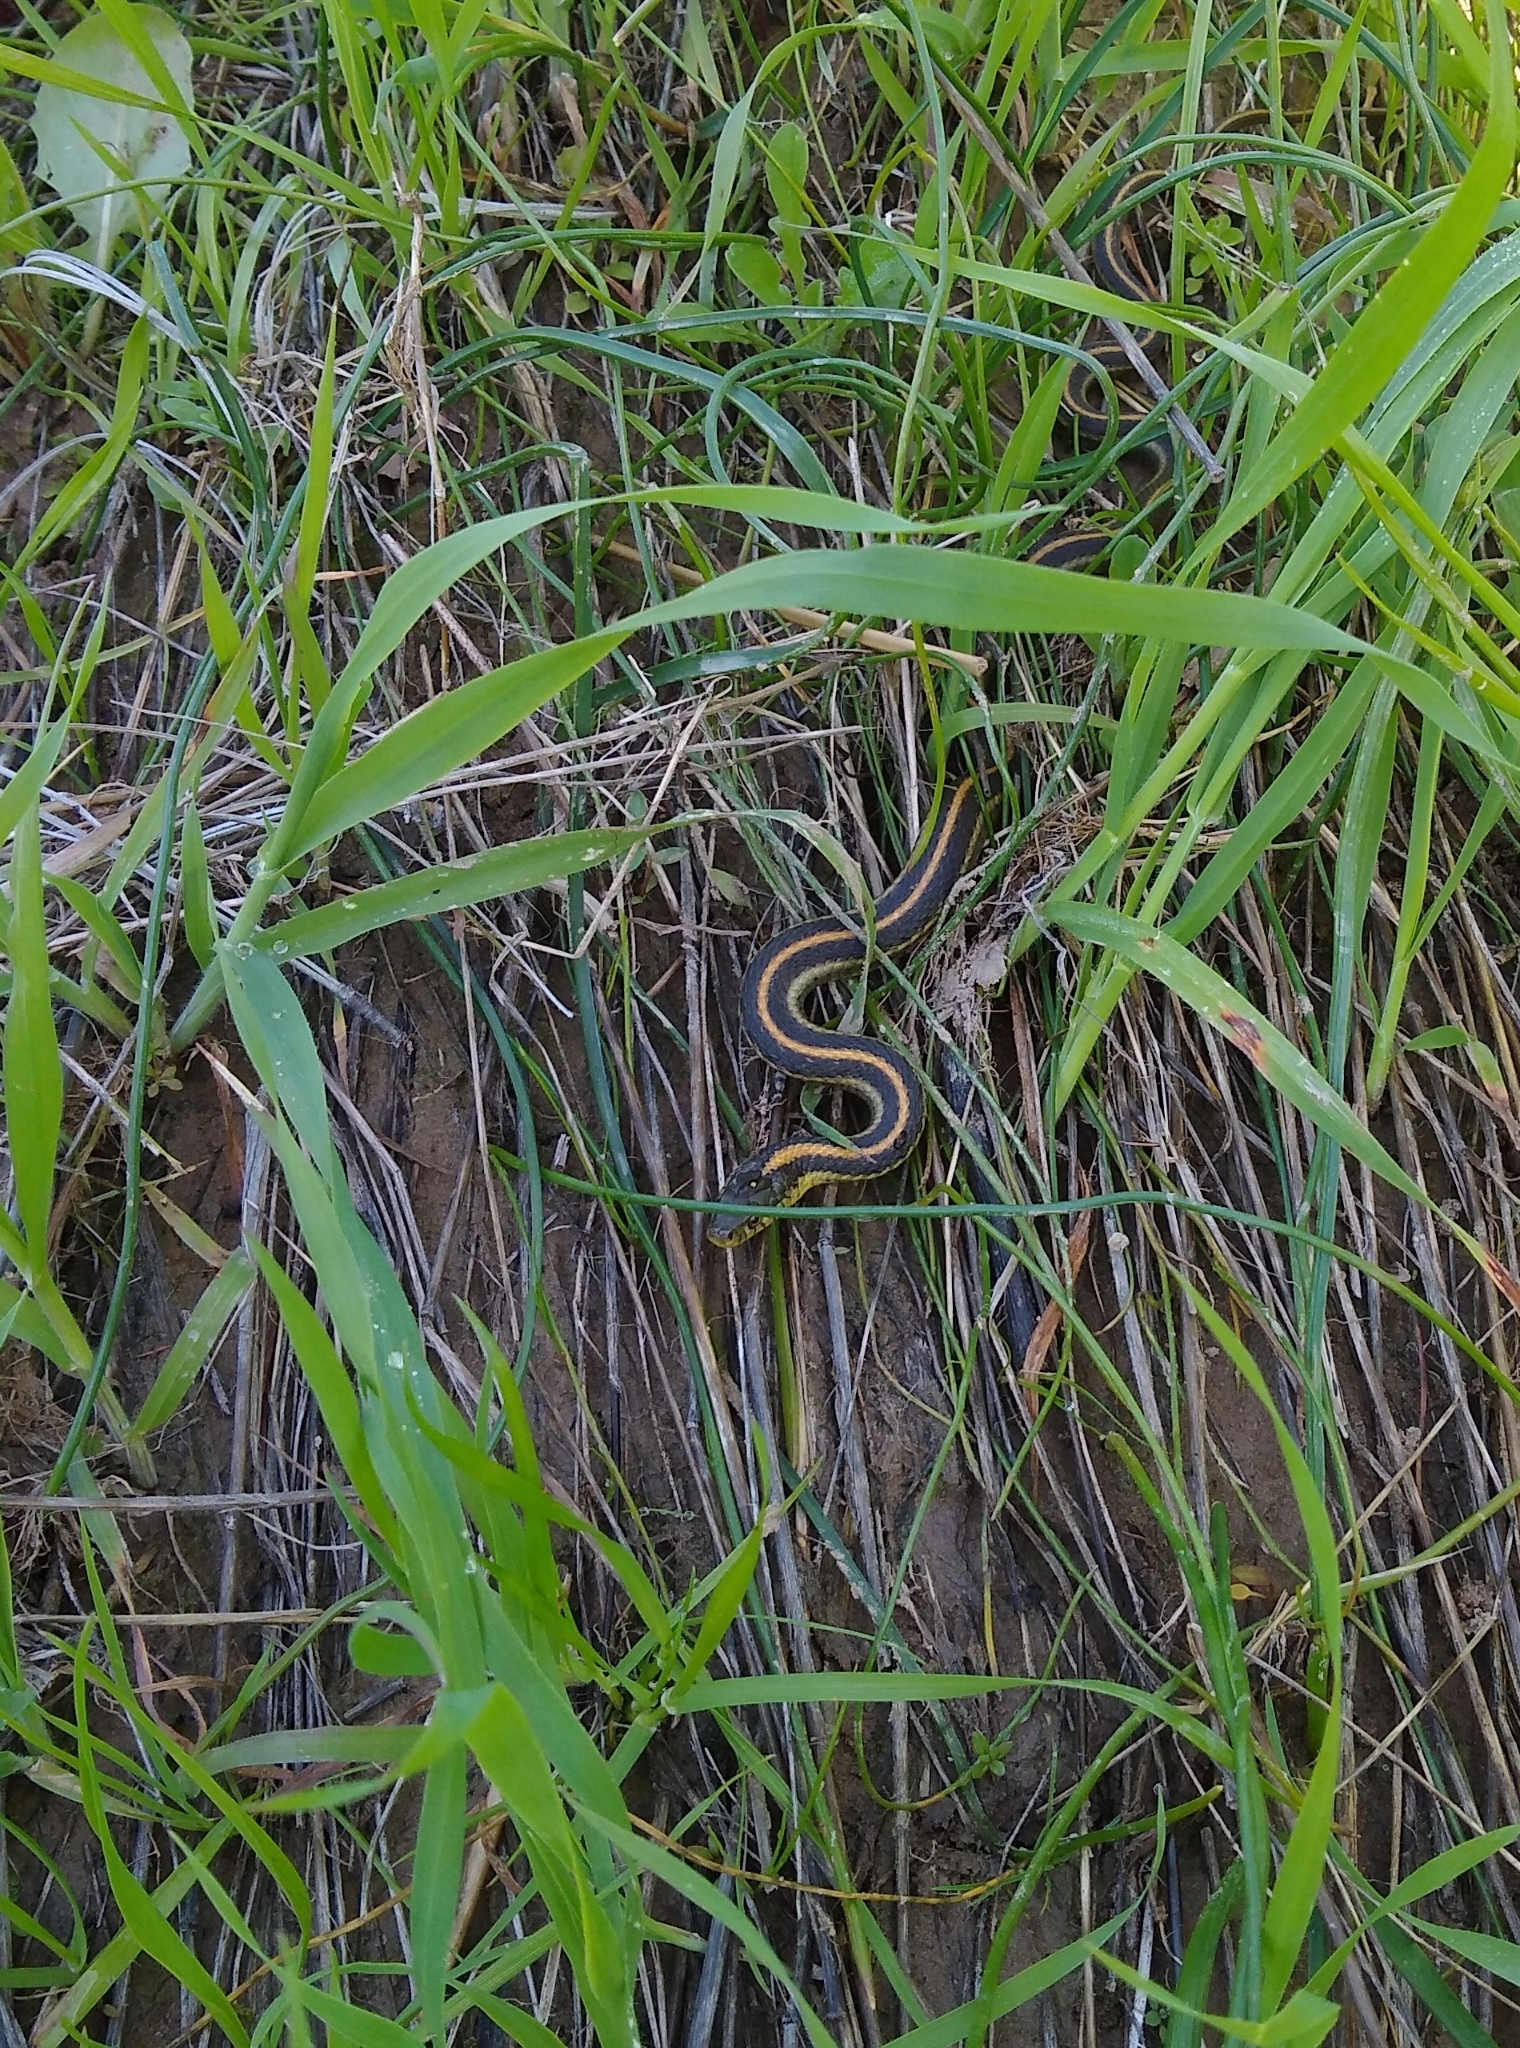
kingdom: Animalia
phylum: Chordata
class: Squamata
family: Colubridae
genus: Thamnophis
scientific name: Thamnophis atratus
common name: Pacific coast aquatic garter snake
